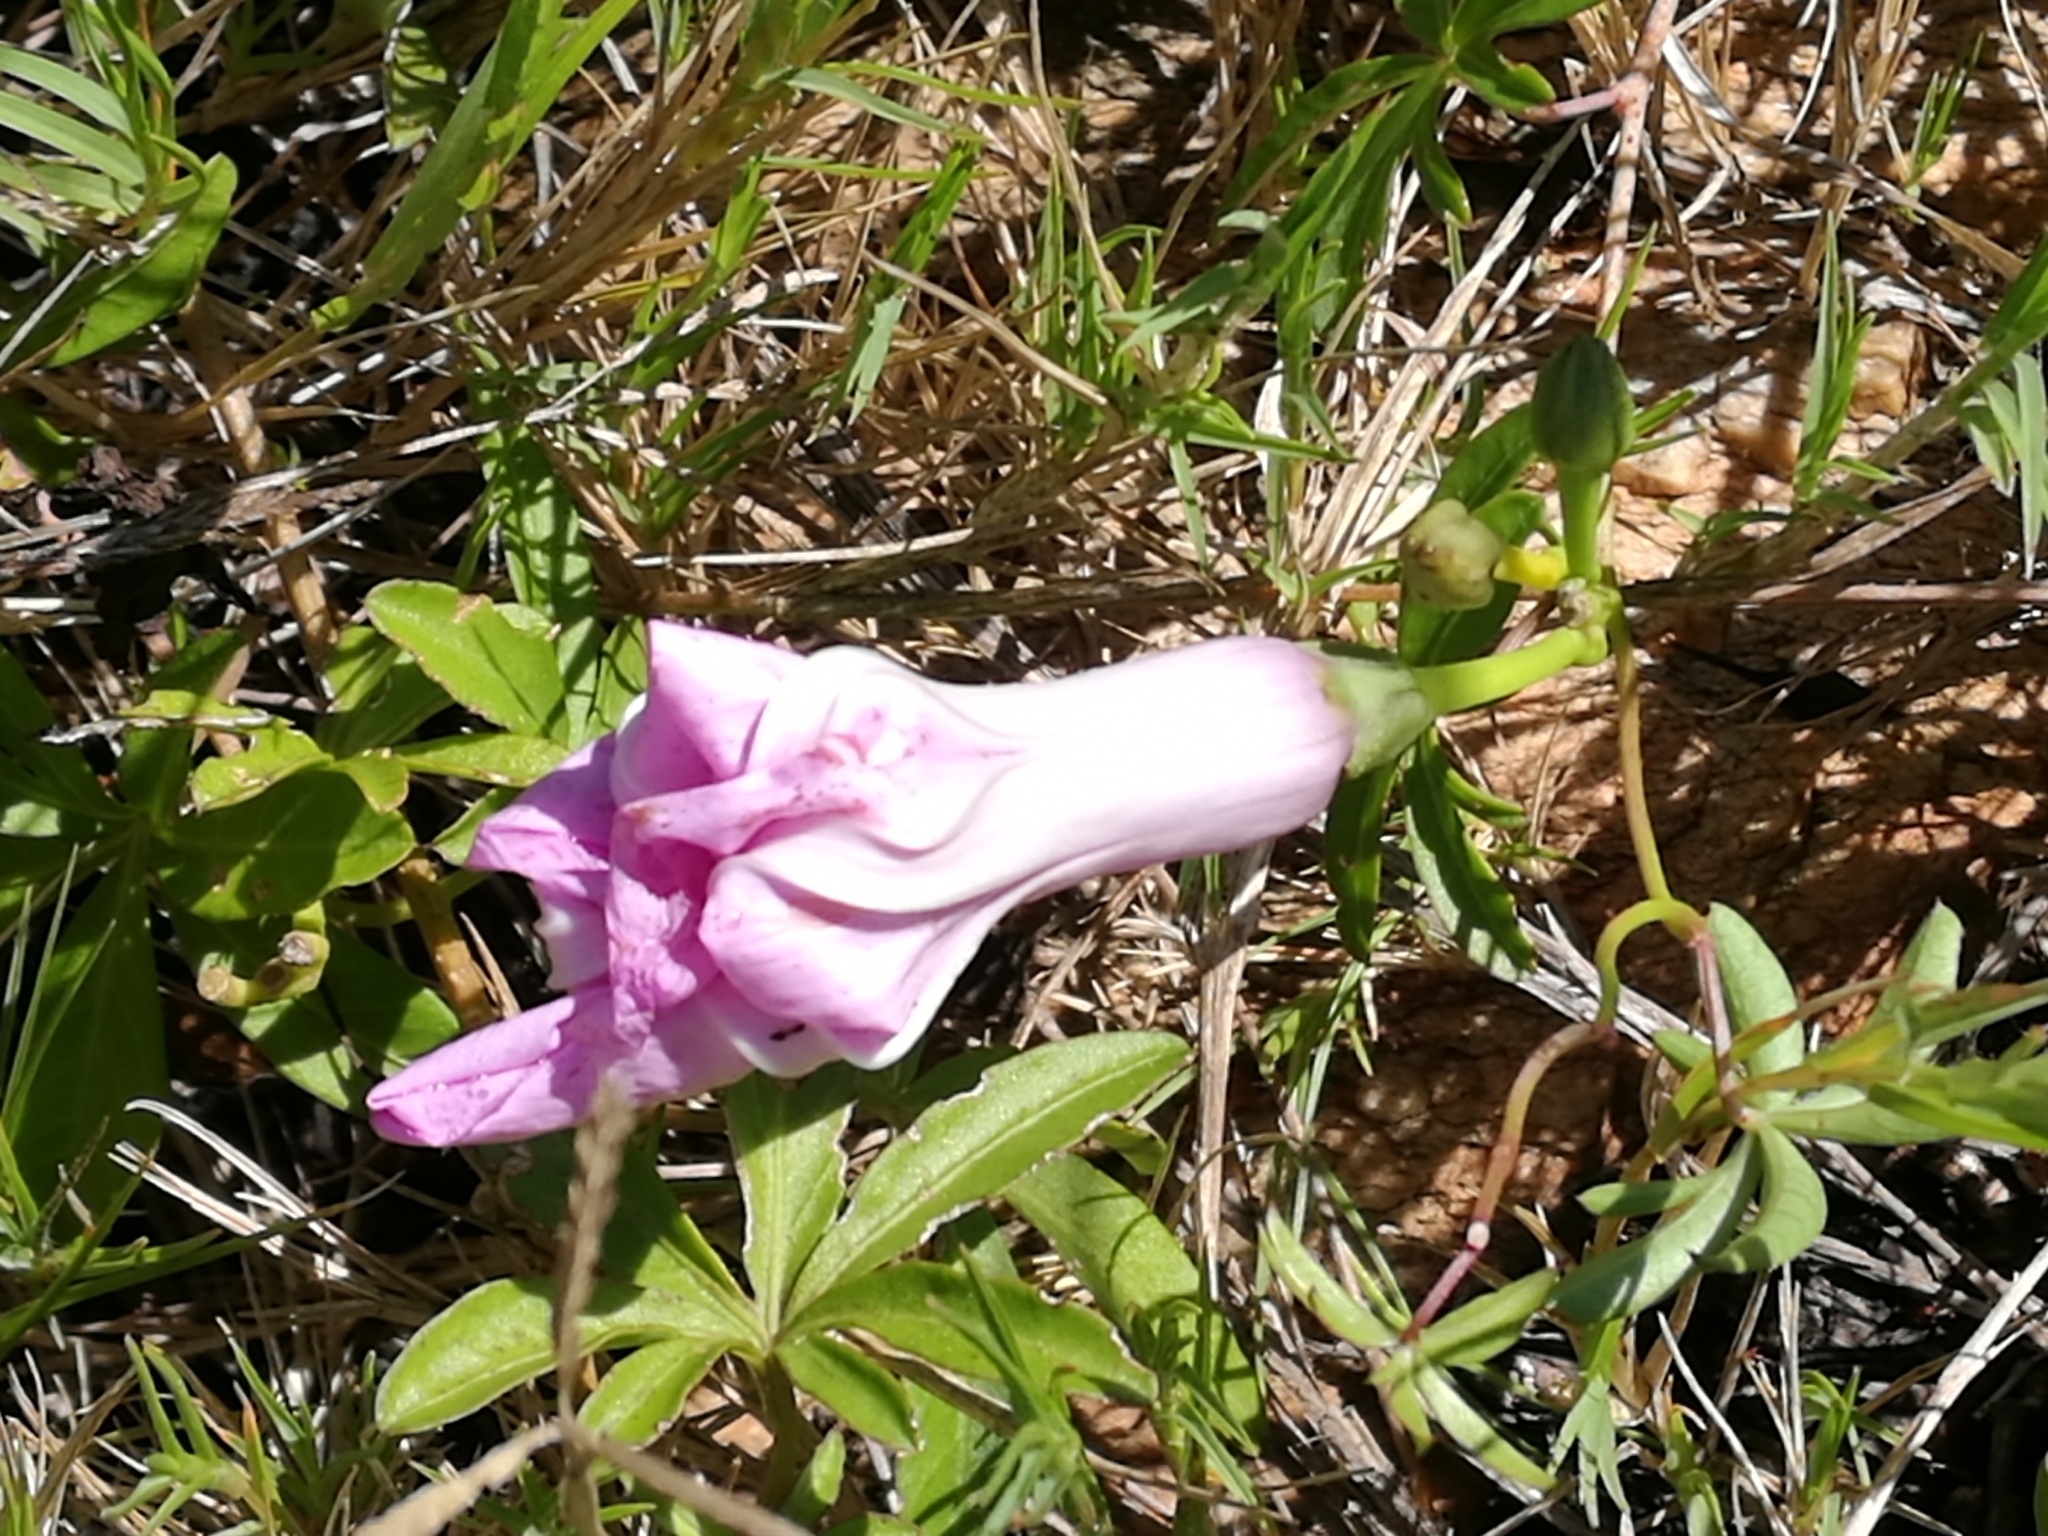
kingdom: Plantae
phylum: Tracheophyta
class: Magnoliopsida
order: Solanales
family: Convolvulaceae
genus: Ipomoea
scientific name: Ipomoea cairica
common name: Mile a minute vine
